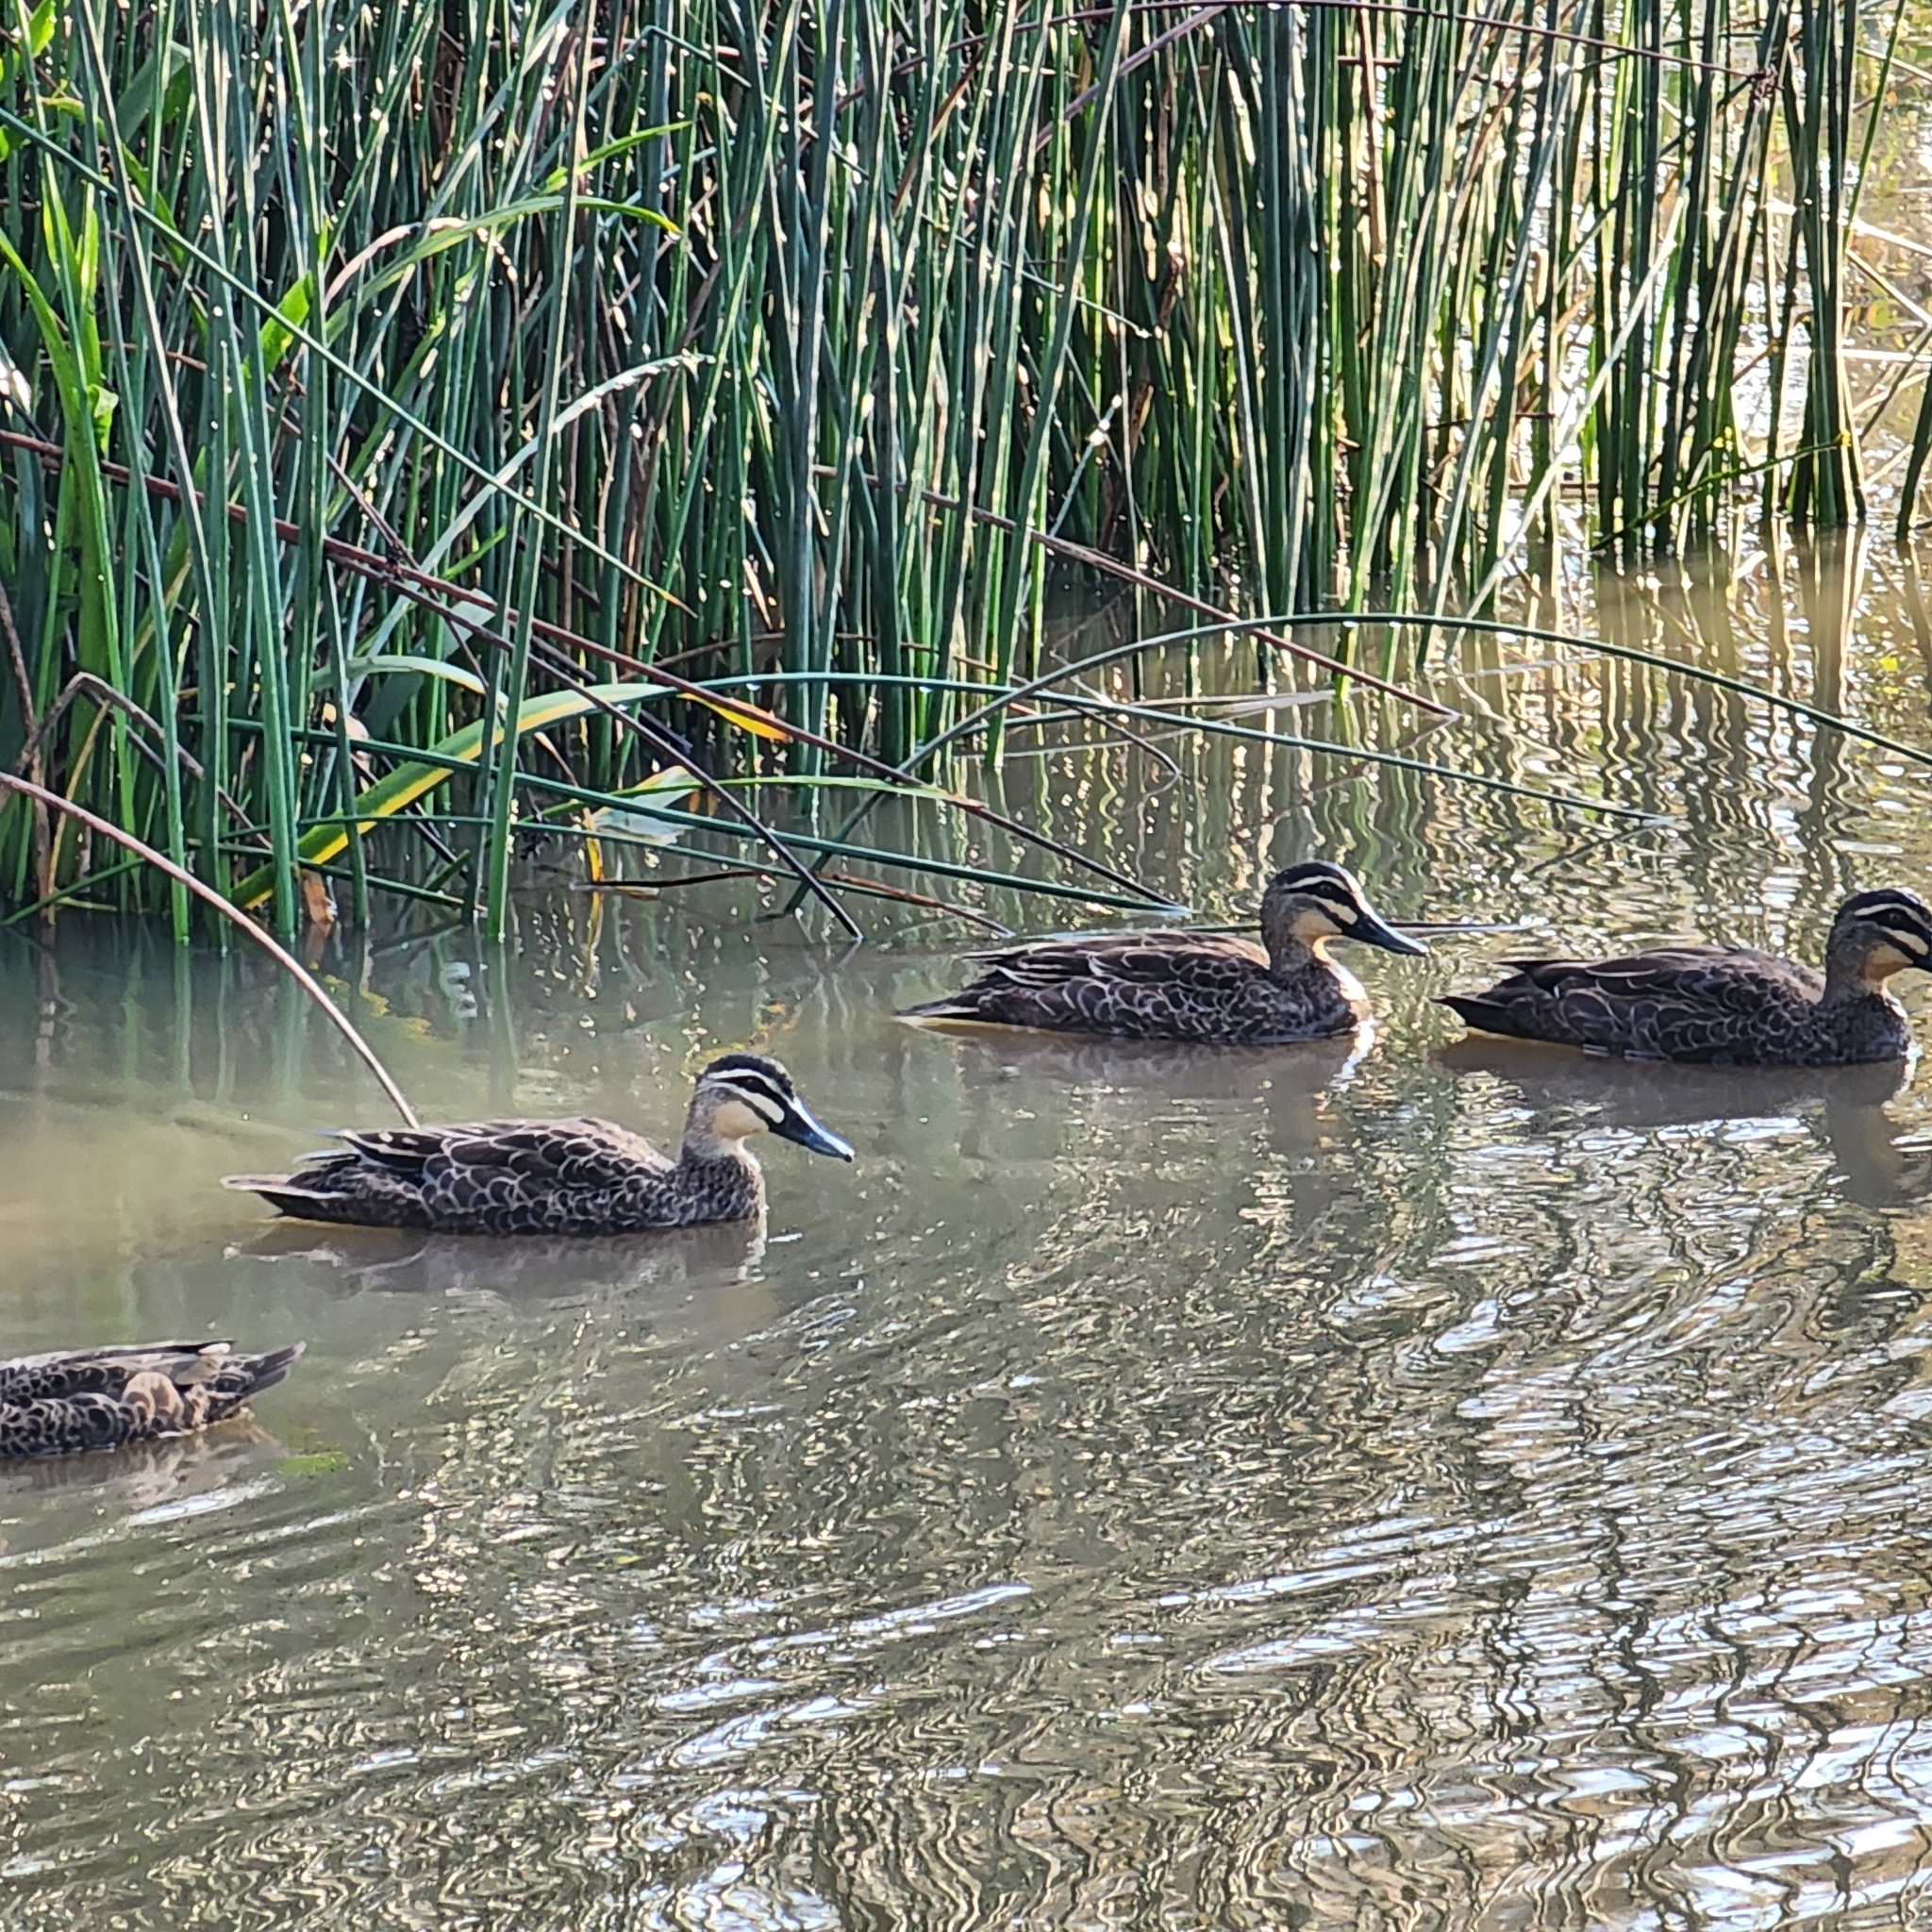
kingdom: Animalia
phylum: Chordata
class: Aves
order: Anseriformes
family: Anatidae
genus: Anas
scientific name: Anas superciliosa
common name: Pacific black duck
